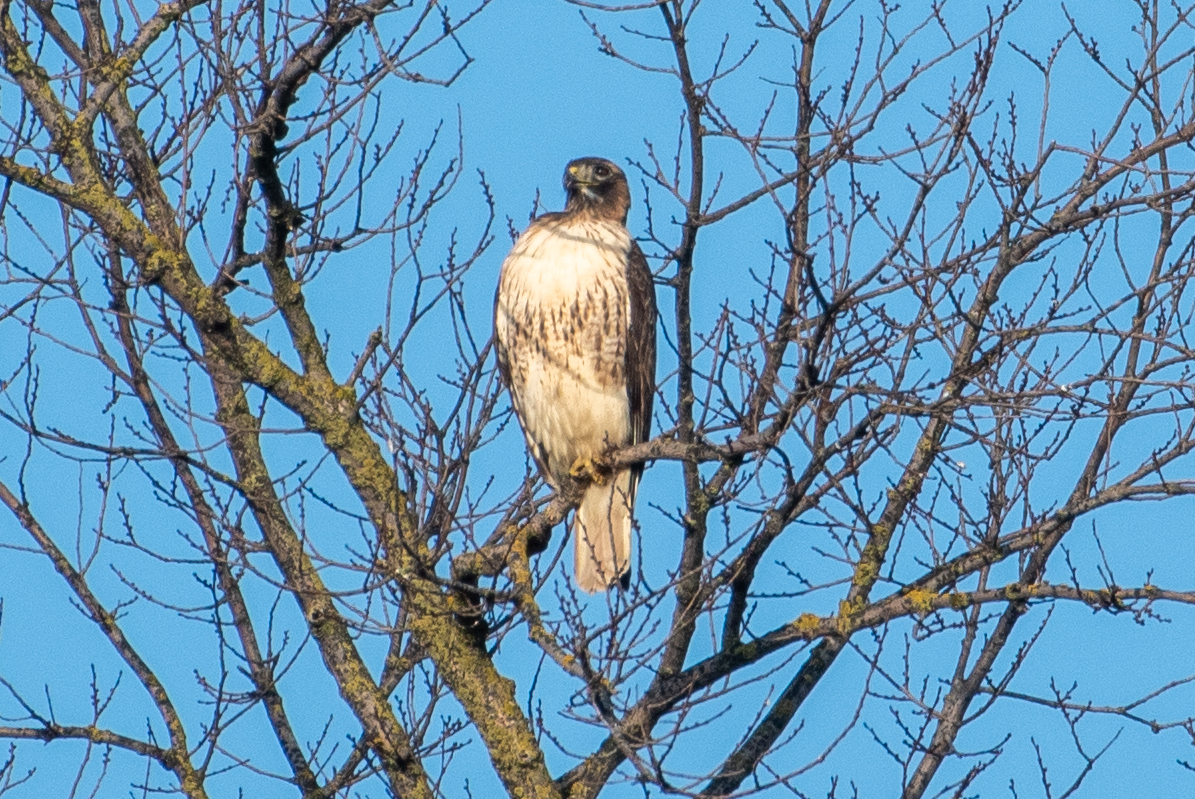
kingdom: Animalia
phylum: Chordata
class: Aves
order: Accipitriformes
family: Accipitridae
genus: Buteo
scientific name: Buteo jamaicensis
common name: Red-tailed hawk
